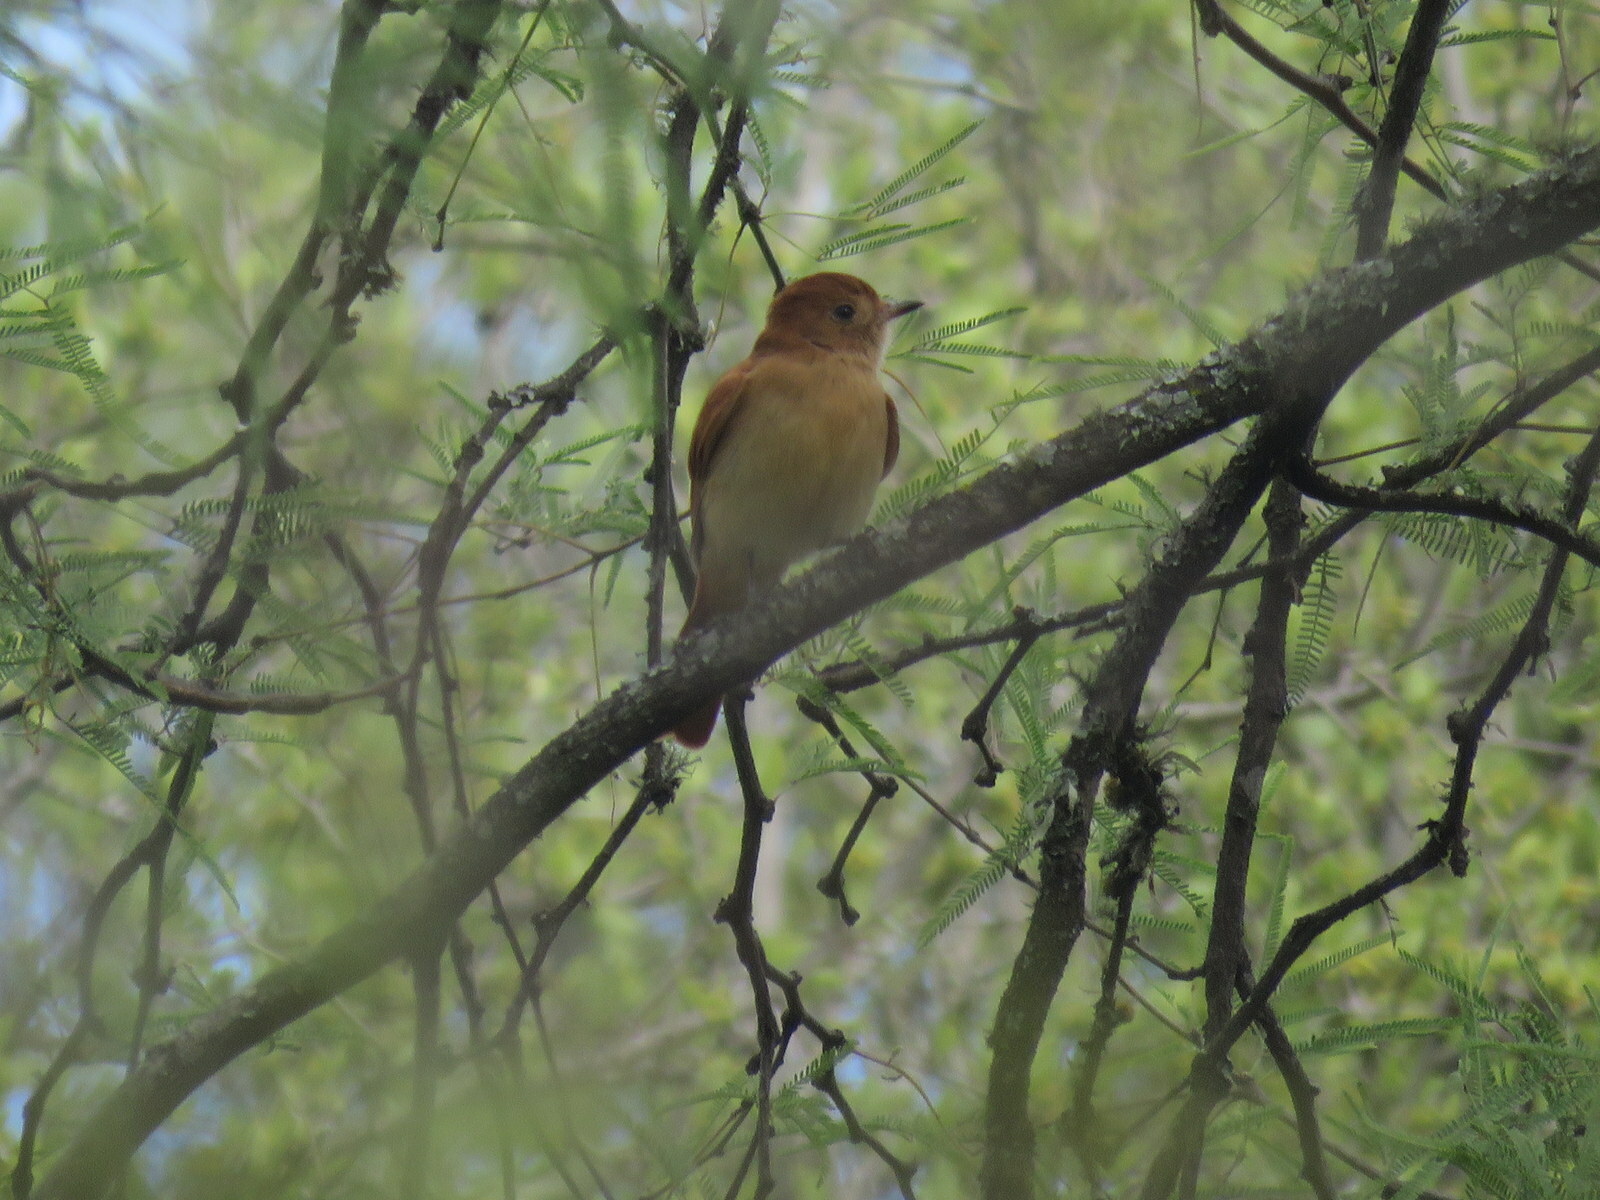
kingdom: Animalia
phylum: Chordata
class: Aves
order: Passeriformes
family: Tyrannidae
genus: Casiornis
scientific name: Casiornis rufus
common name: Rufous casiornis
